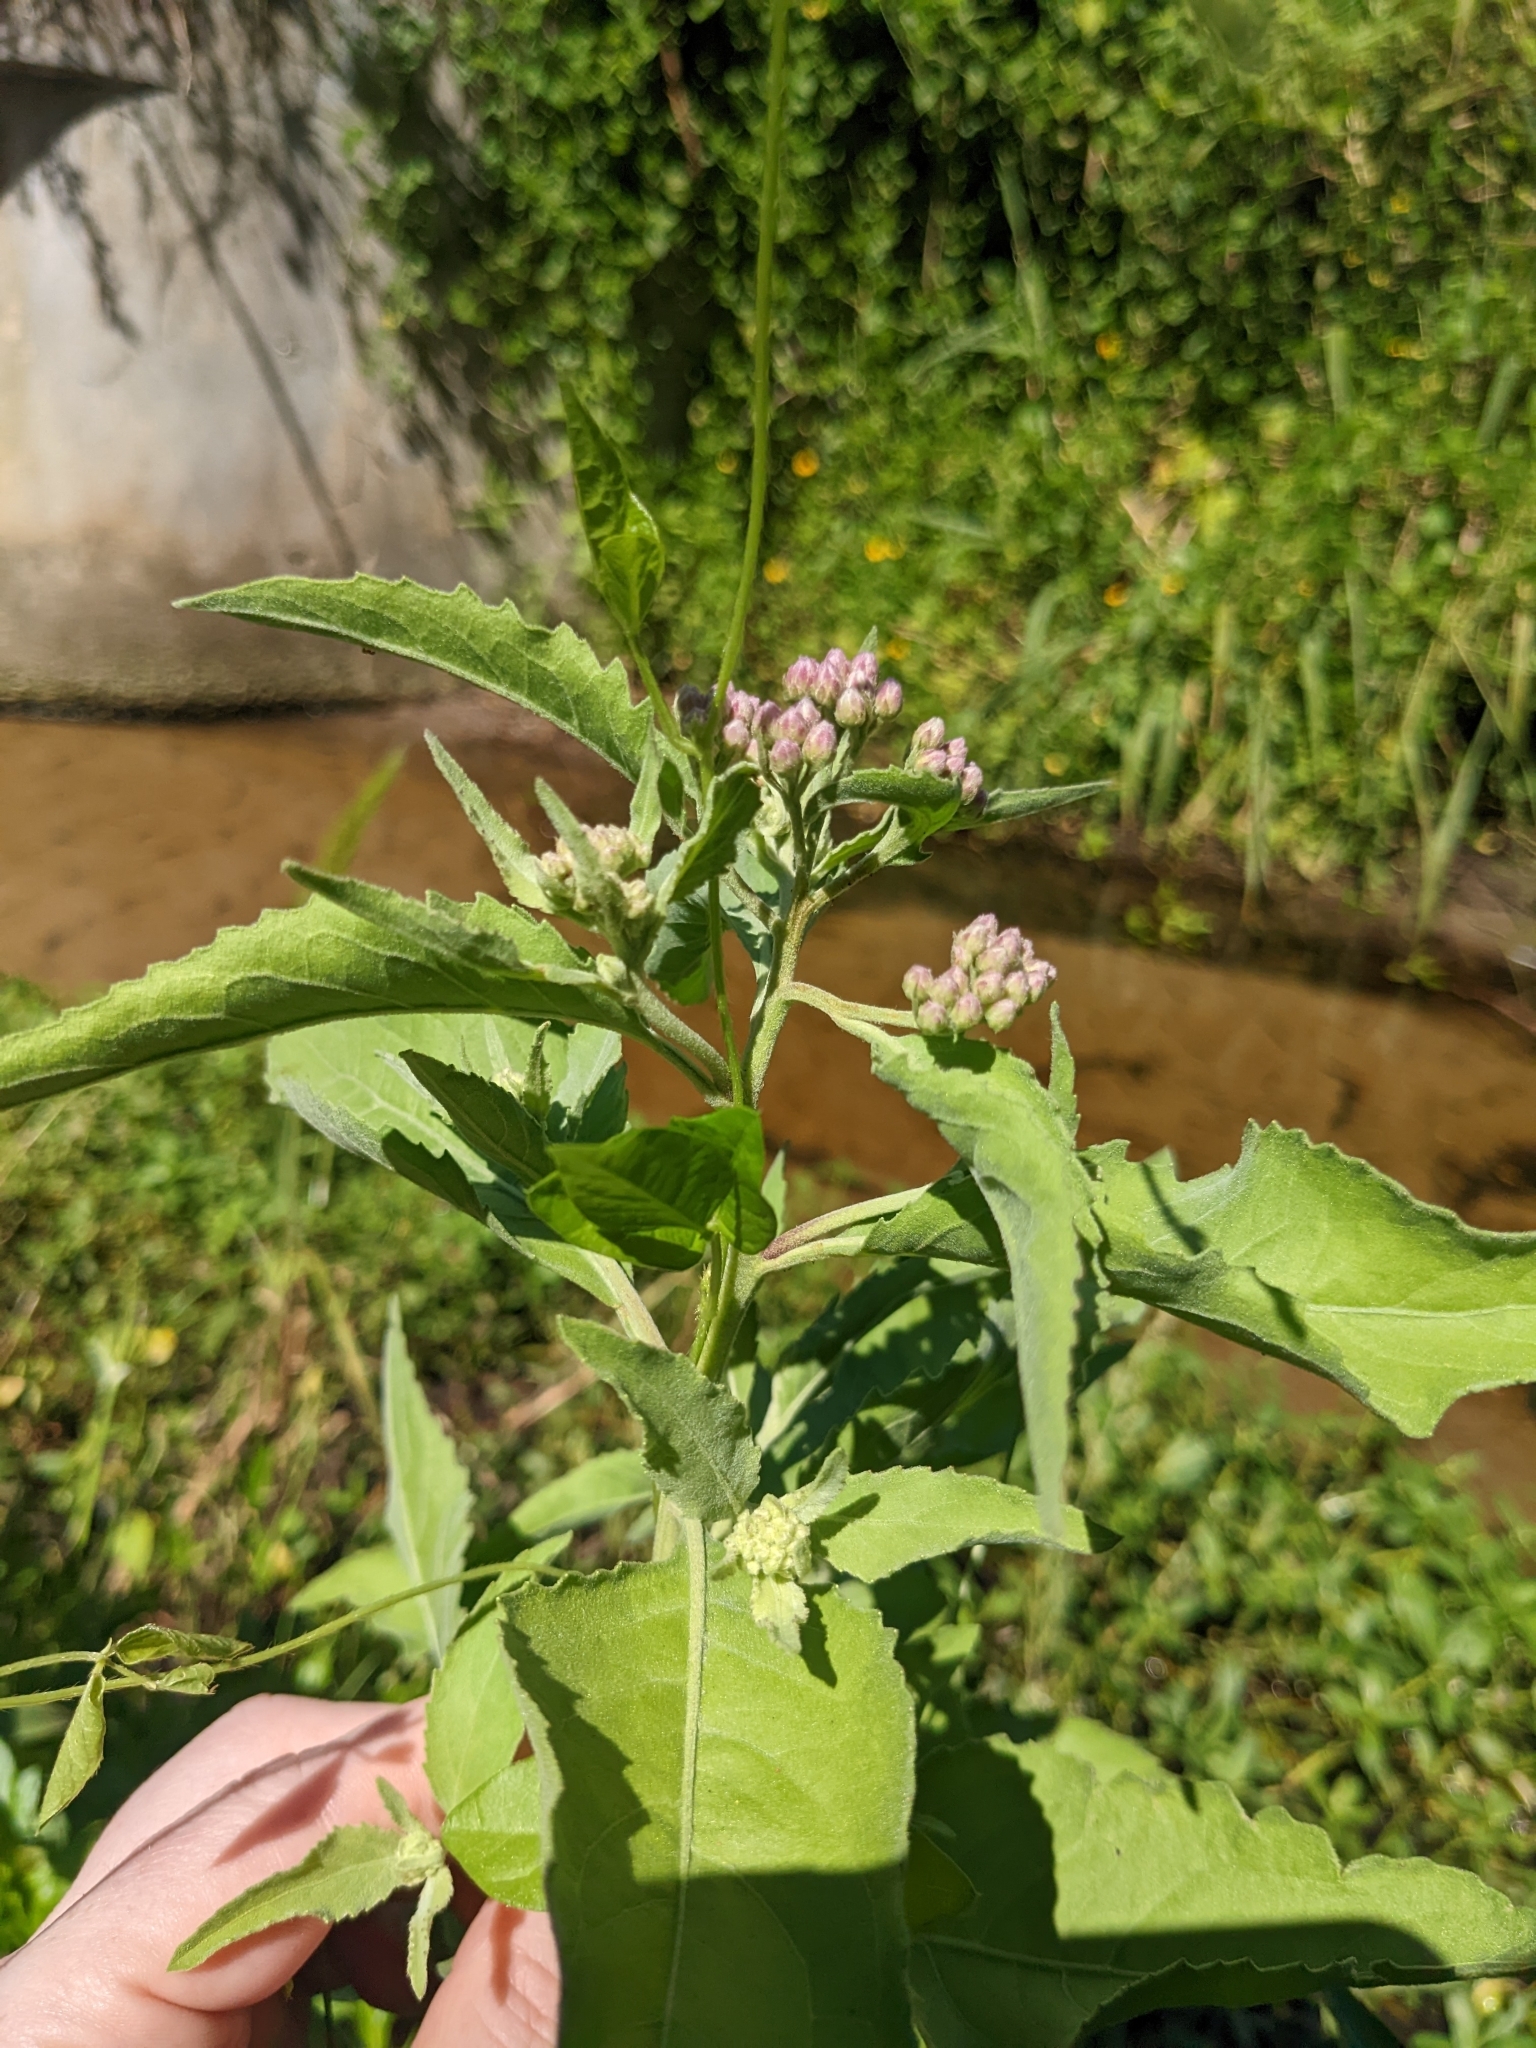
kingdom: Plantae
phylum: Tracheophyta
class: Magnoliopsida
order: Asterales
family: Asteraceae
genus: Pluchea
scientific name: Pluchea odorata
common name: Saltmarsh fleabane
